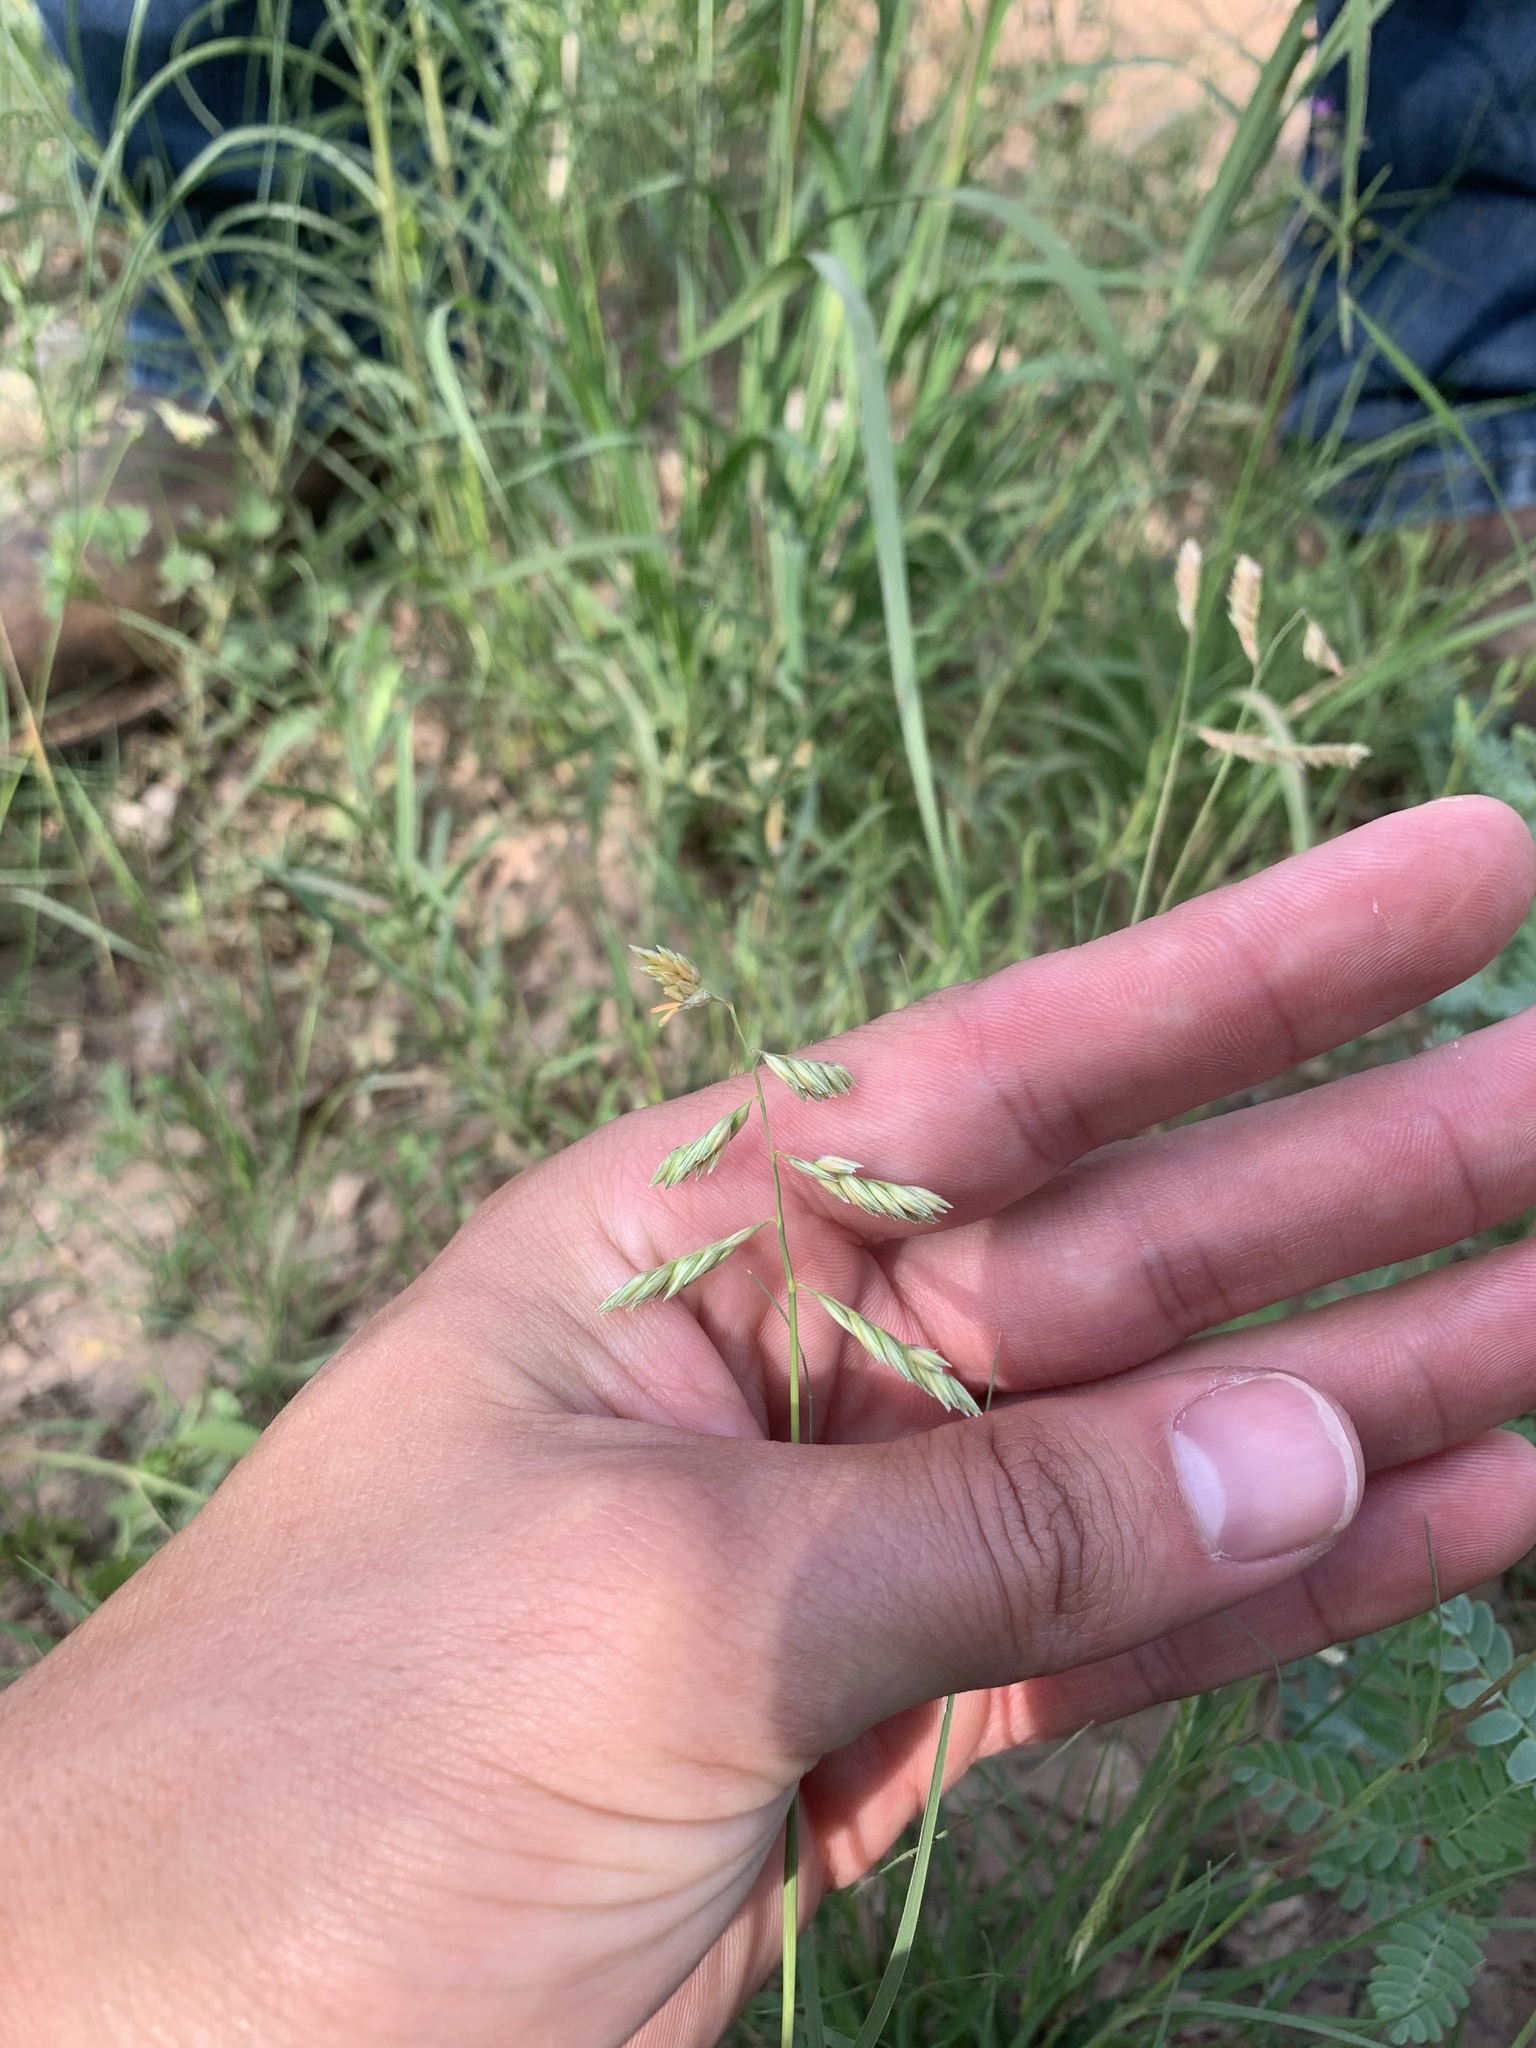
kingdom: Plantae
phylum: Tracheophyta
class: Liliopsida
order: Poales
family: Poaceae
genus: Bouteloua
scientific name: Bouteloua dactyloides
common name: Buffalo grass
